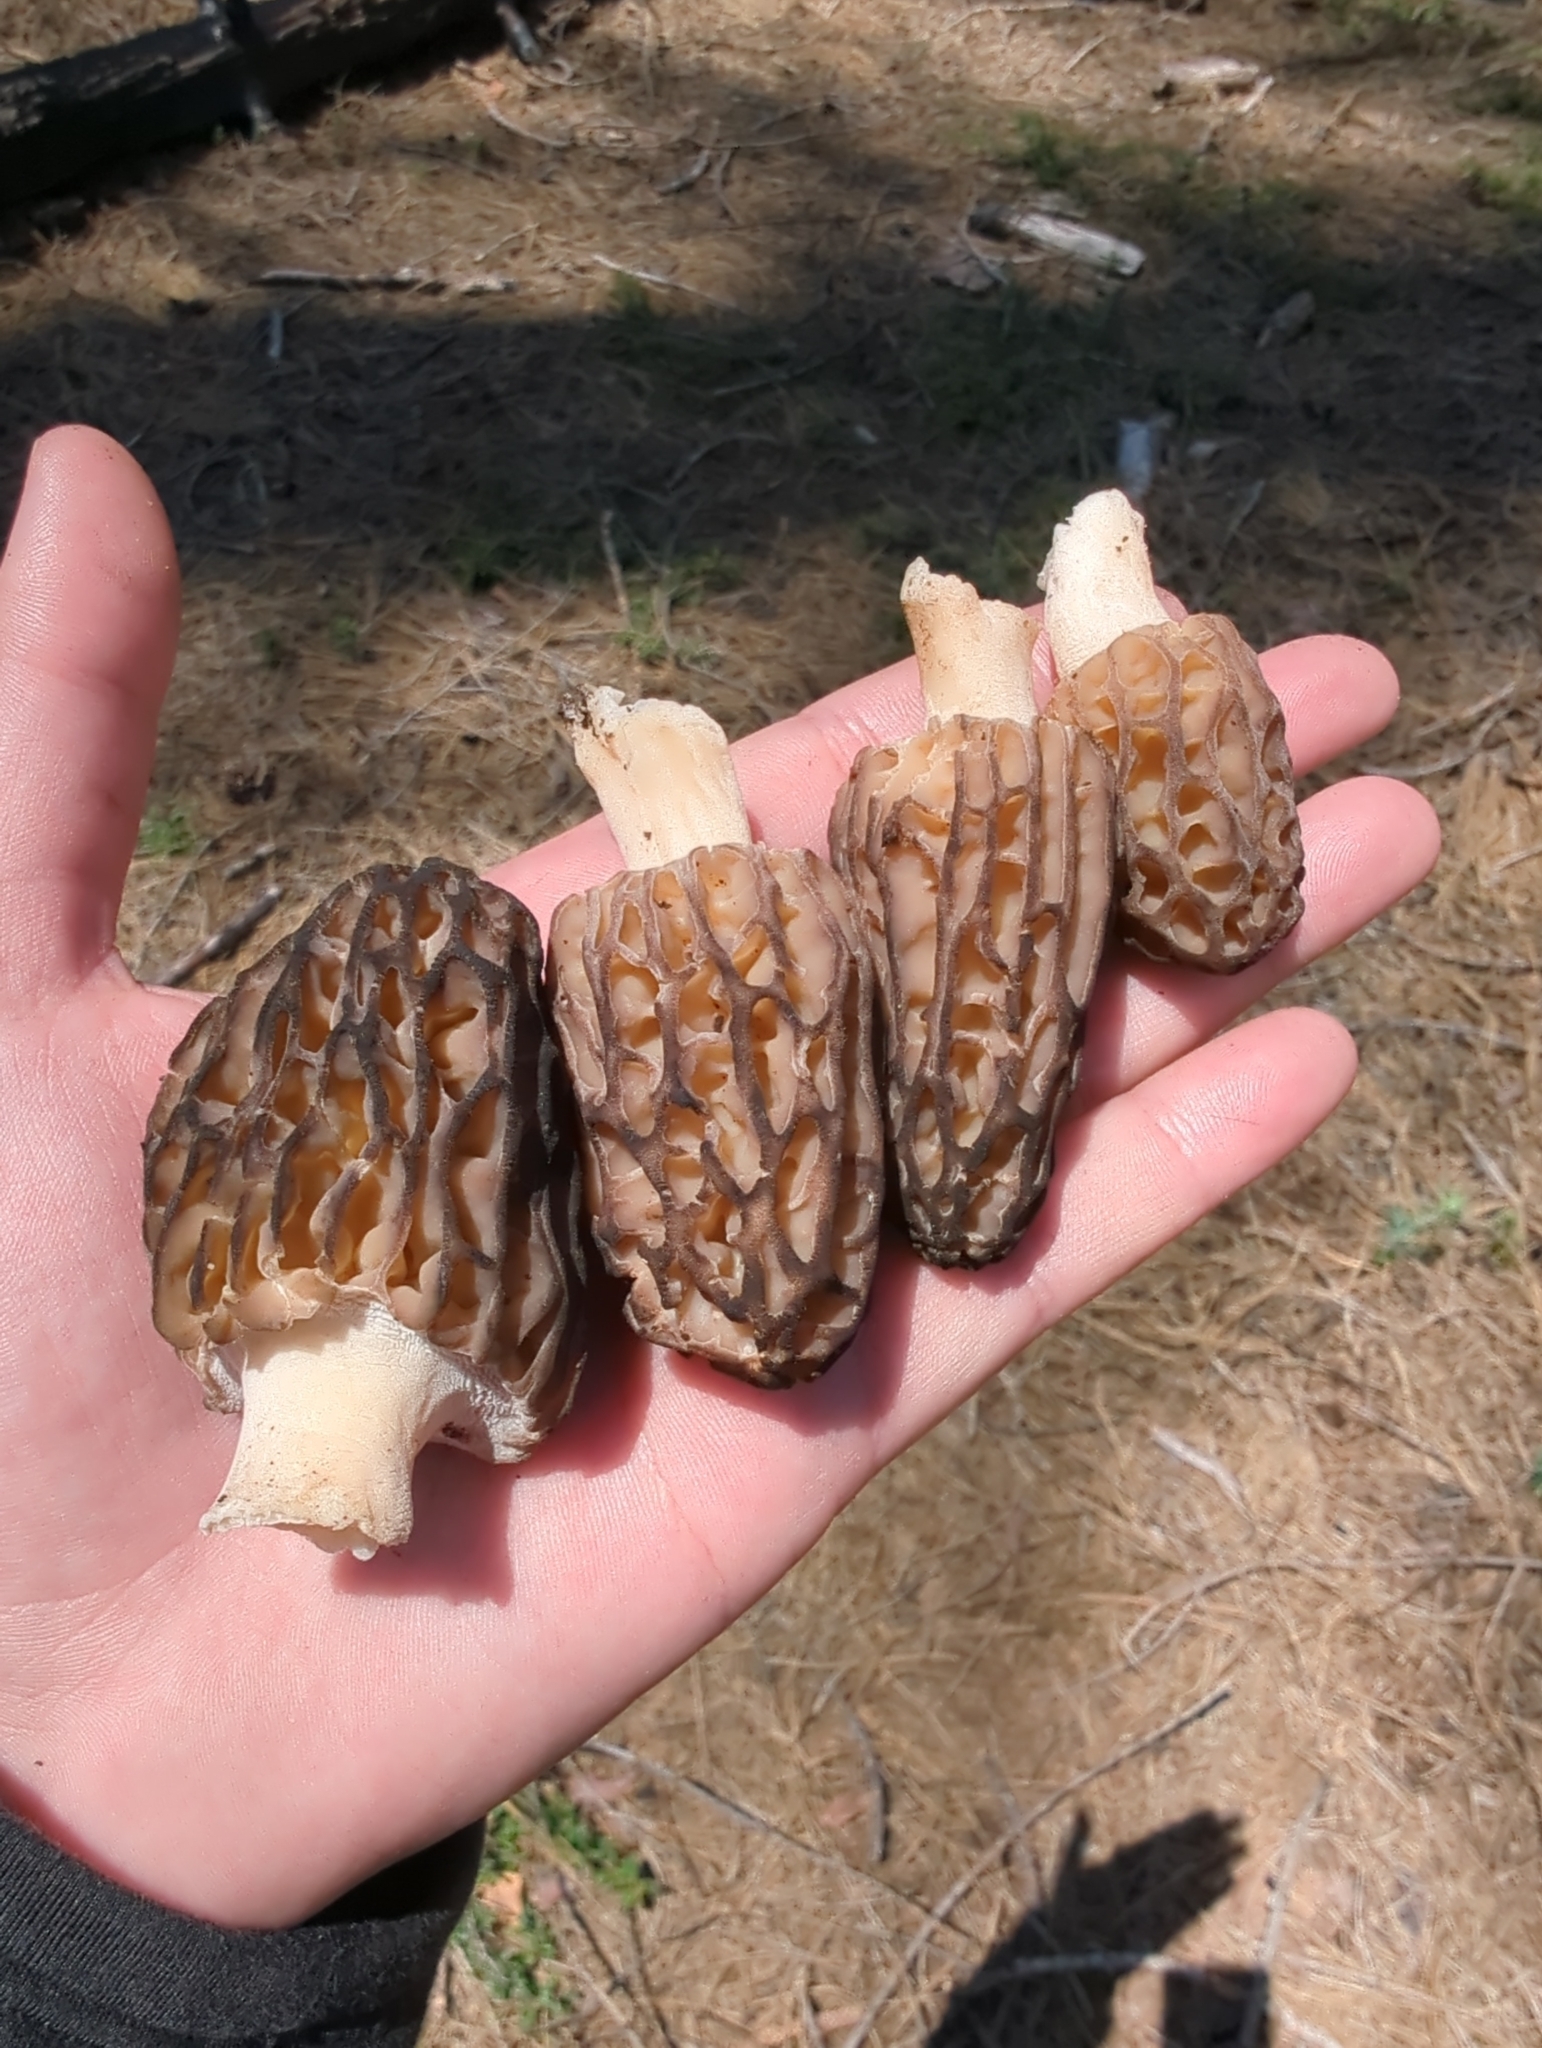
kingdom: Fungi
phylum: Ascomycota
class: Pezizomycetes
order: Pezizales
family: Morchellaceae
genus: Morchella
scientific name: Morchella
